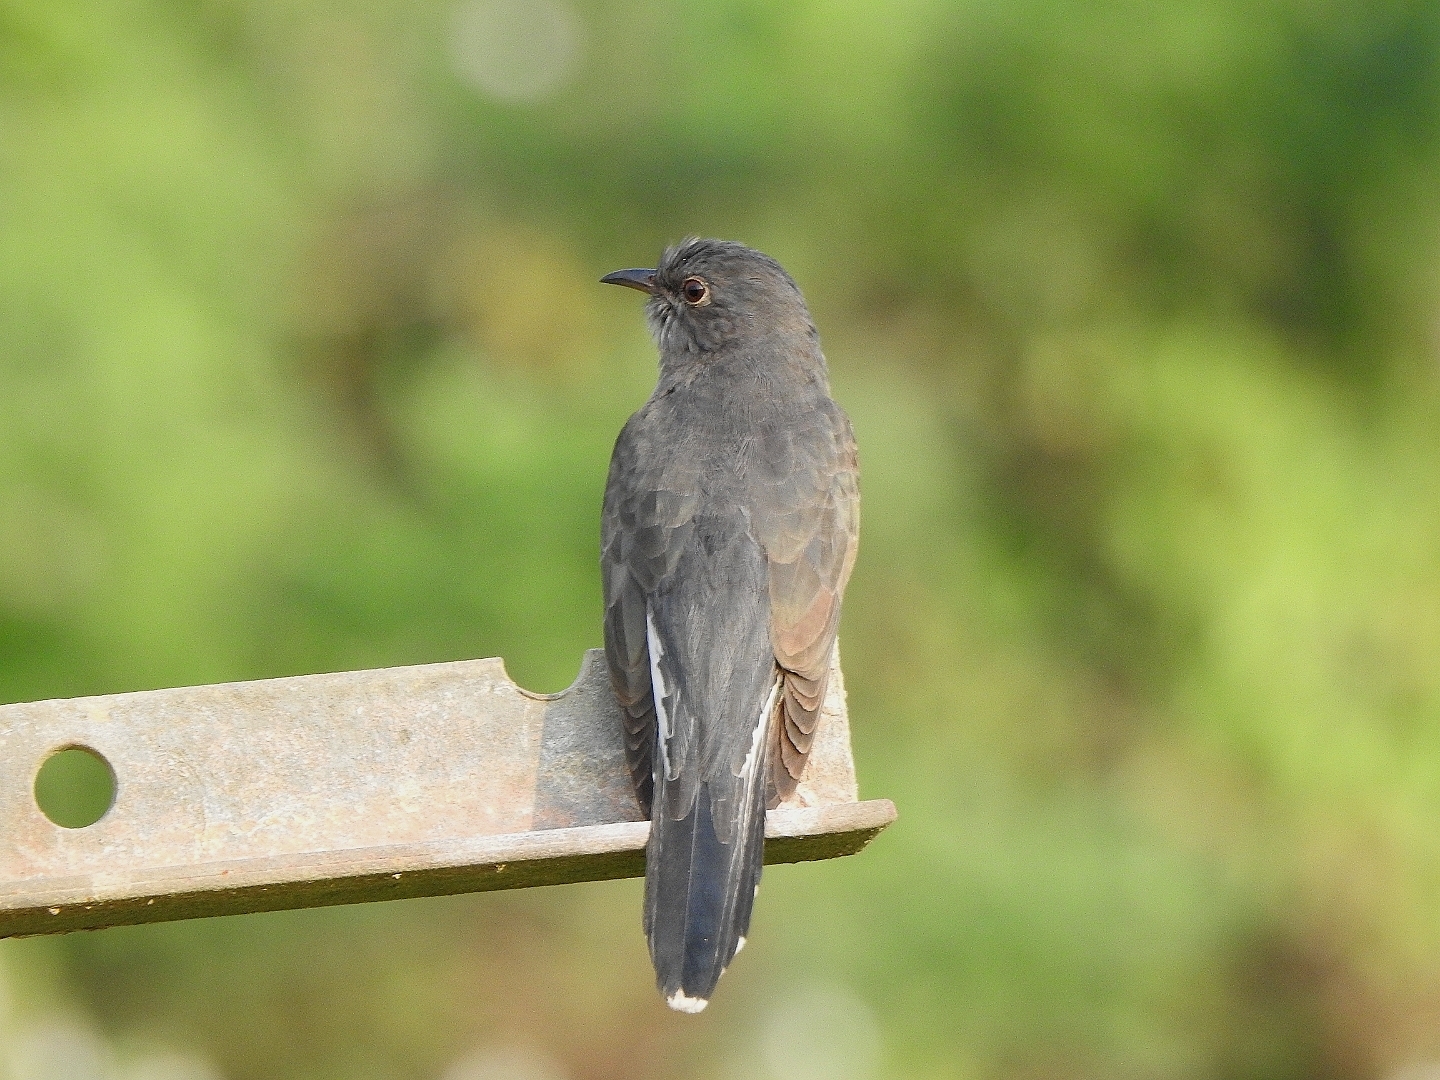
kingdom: Animalia
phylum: Chordata
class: Aves
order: Cuculiformes
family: Cuculidae
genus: Cacomantis
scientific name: Cacomantis passerinus
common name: Grey-bellied cuckoo
